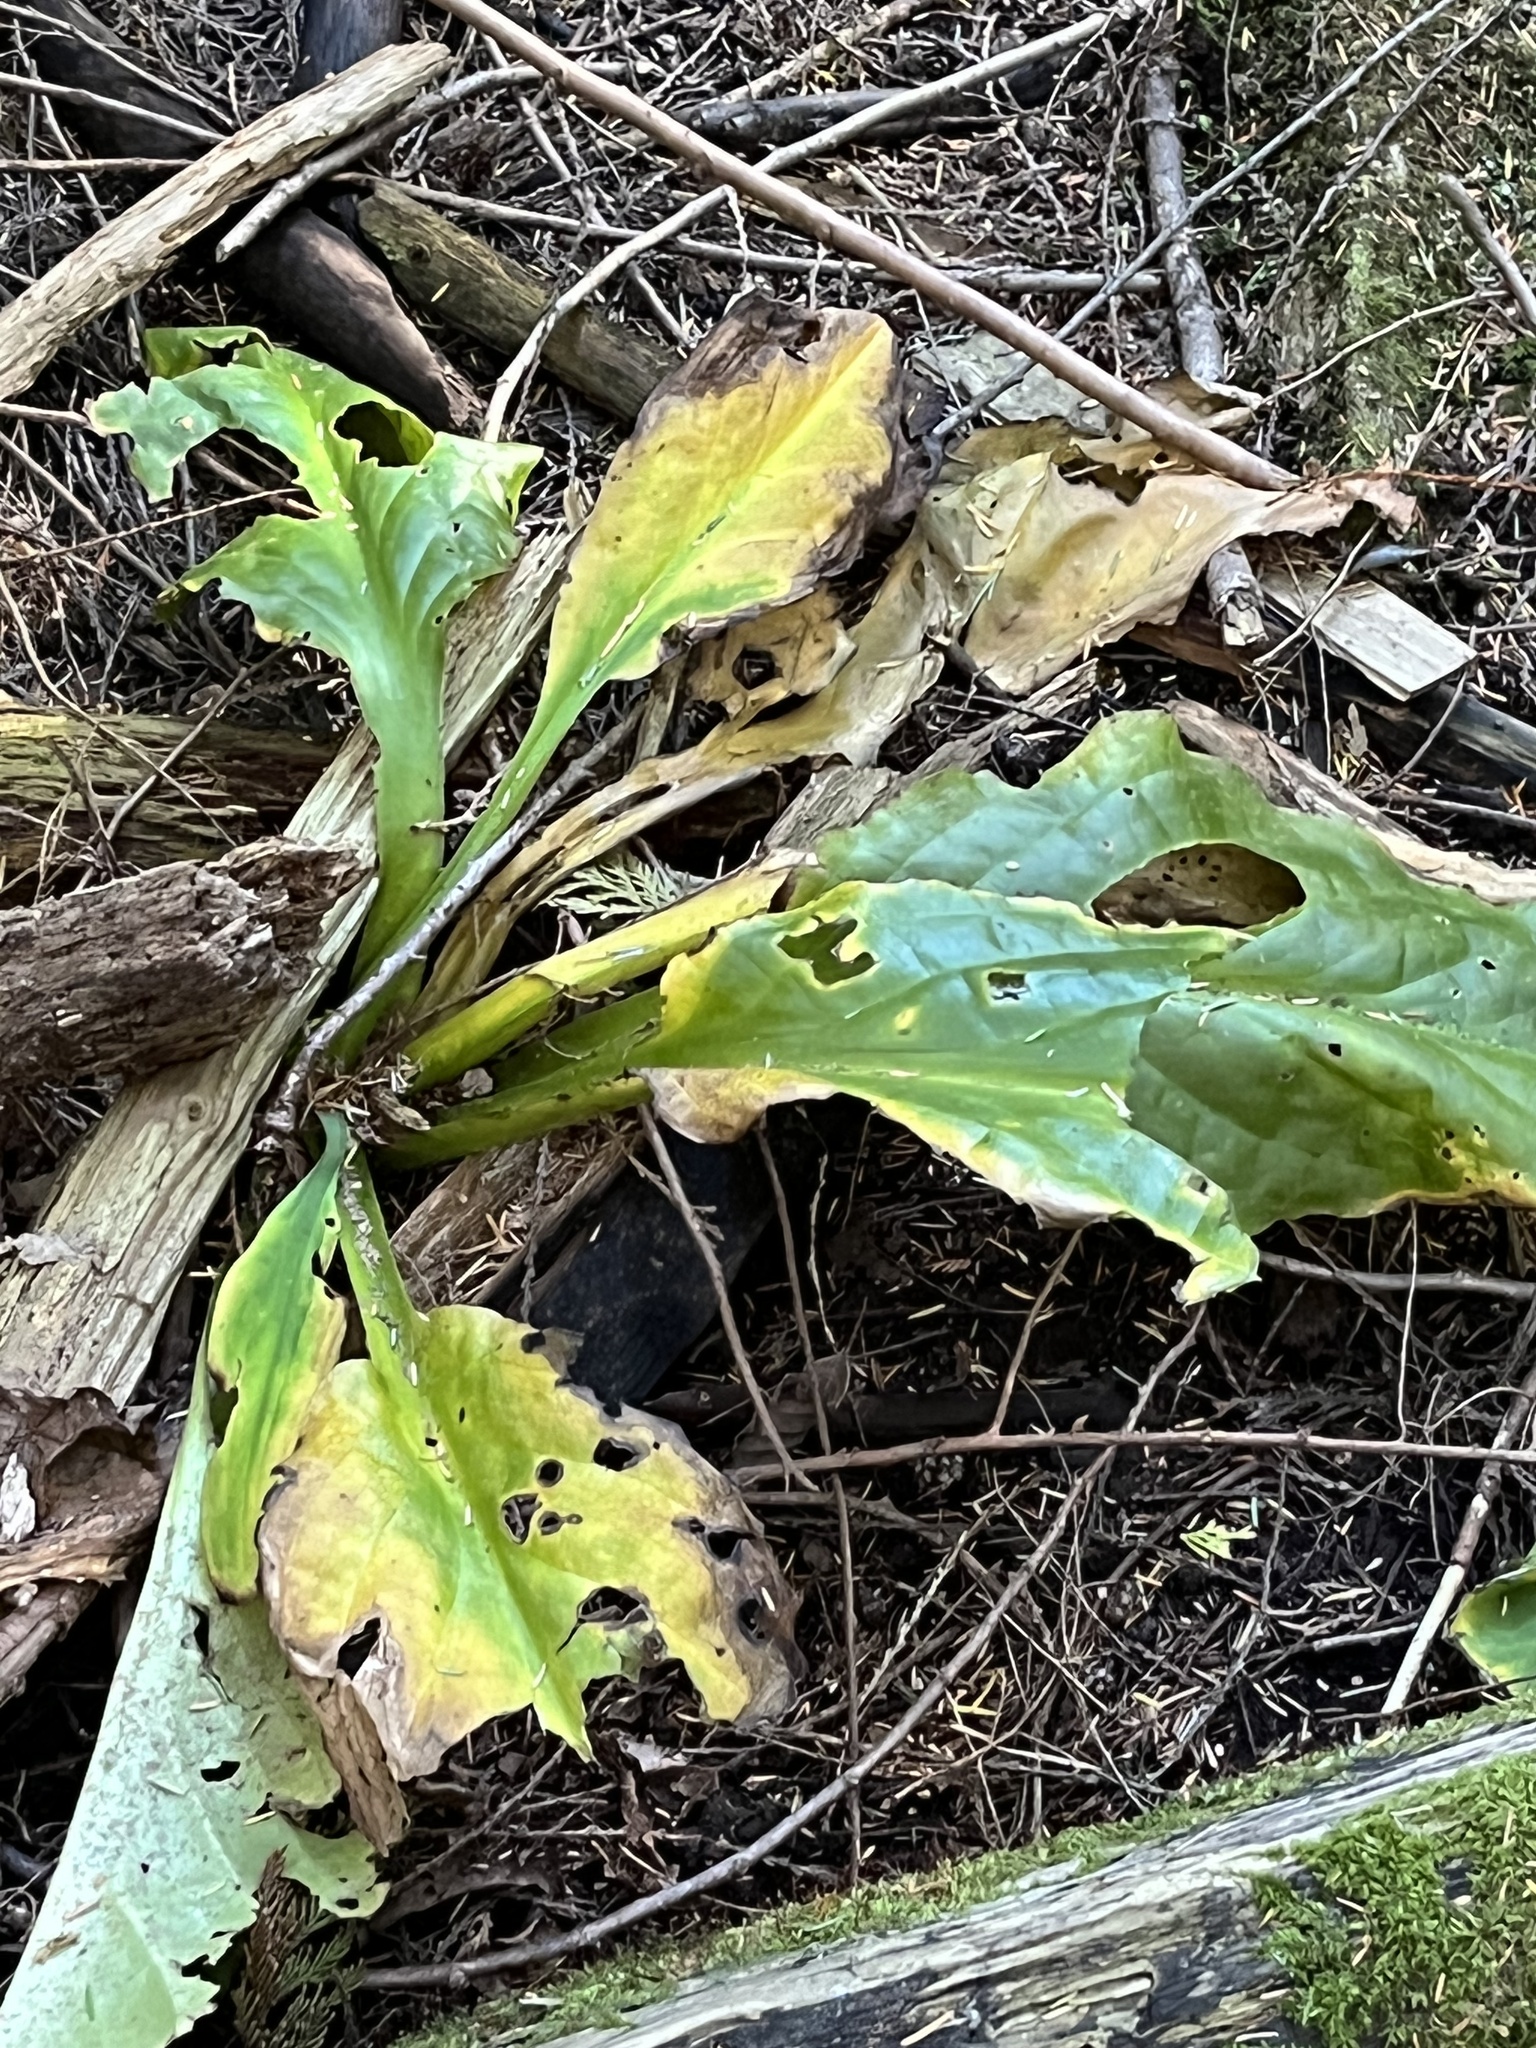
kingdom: Plantae
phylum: Tracheophyta
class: Liliopsida
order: Alismatales
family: Araceae
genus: Lysichiton
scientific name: Lysichiton americanus
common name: American skunk cabbage
